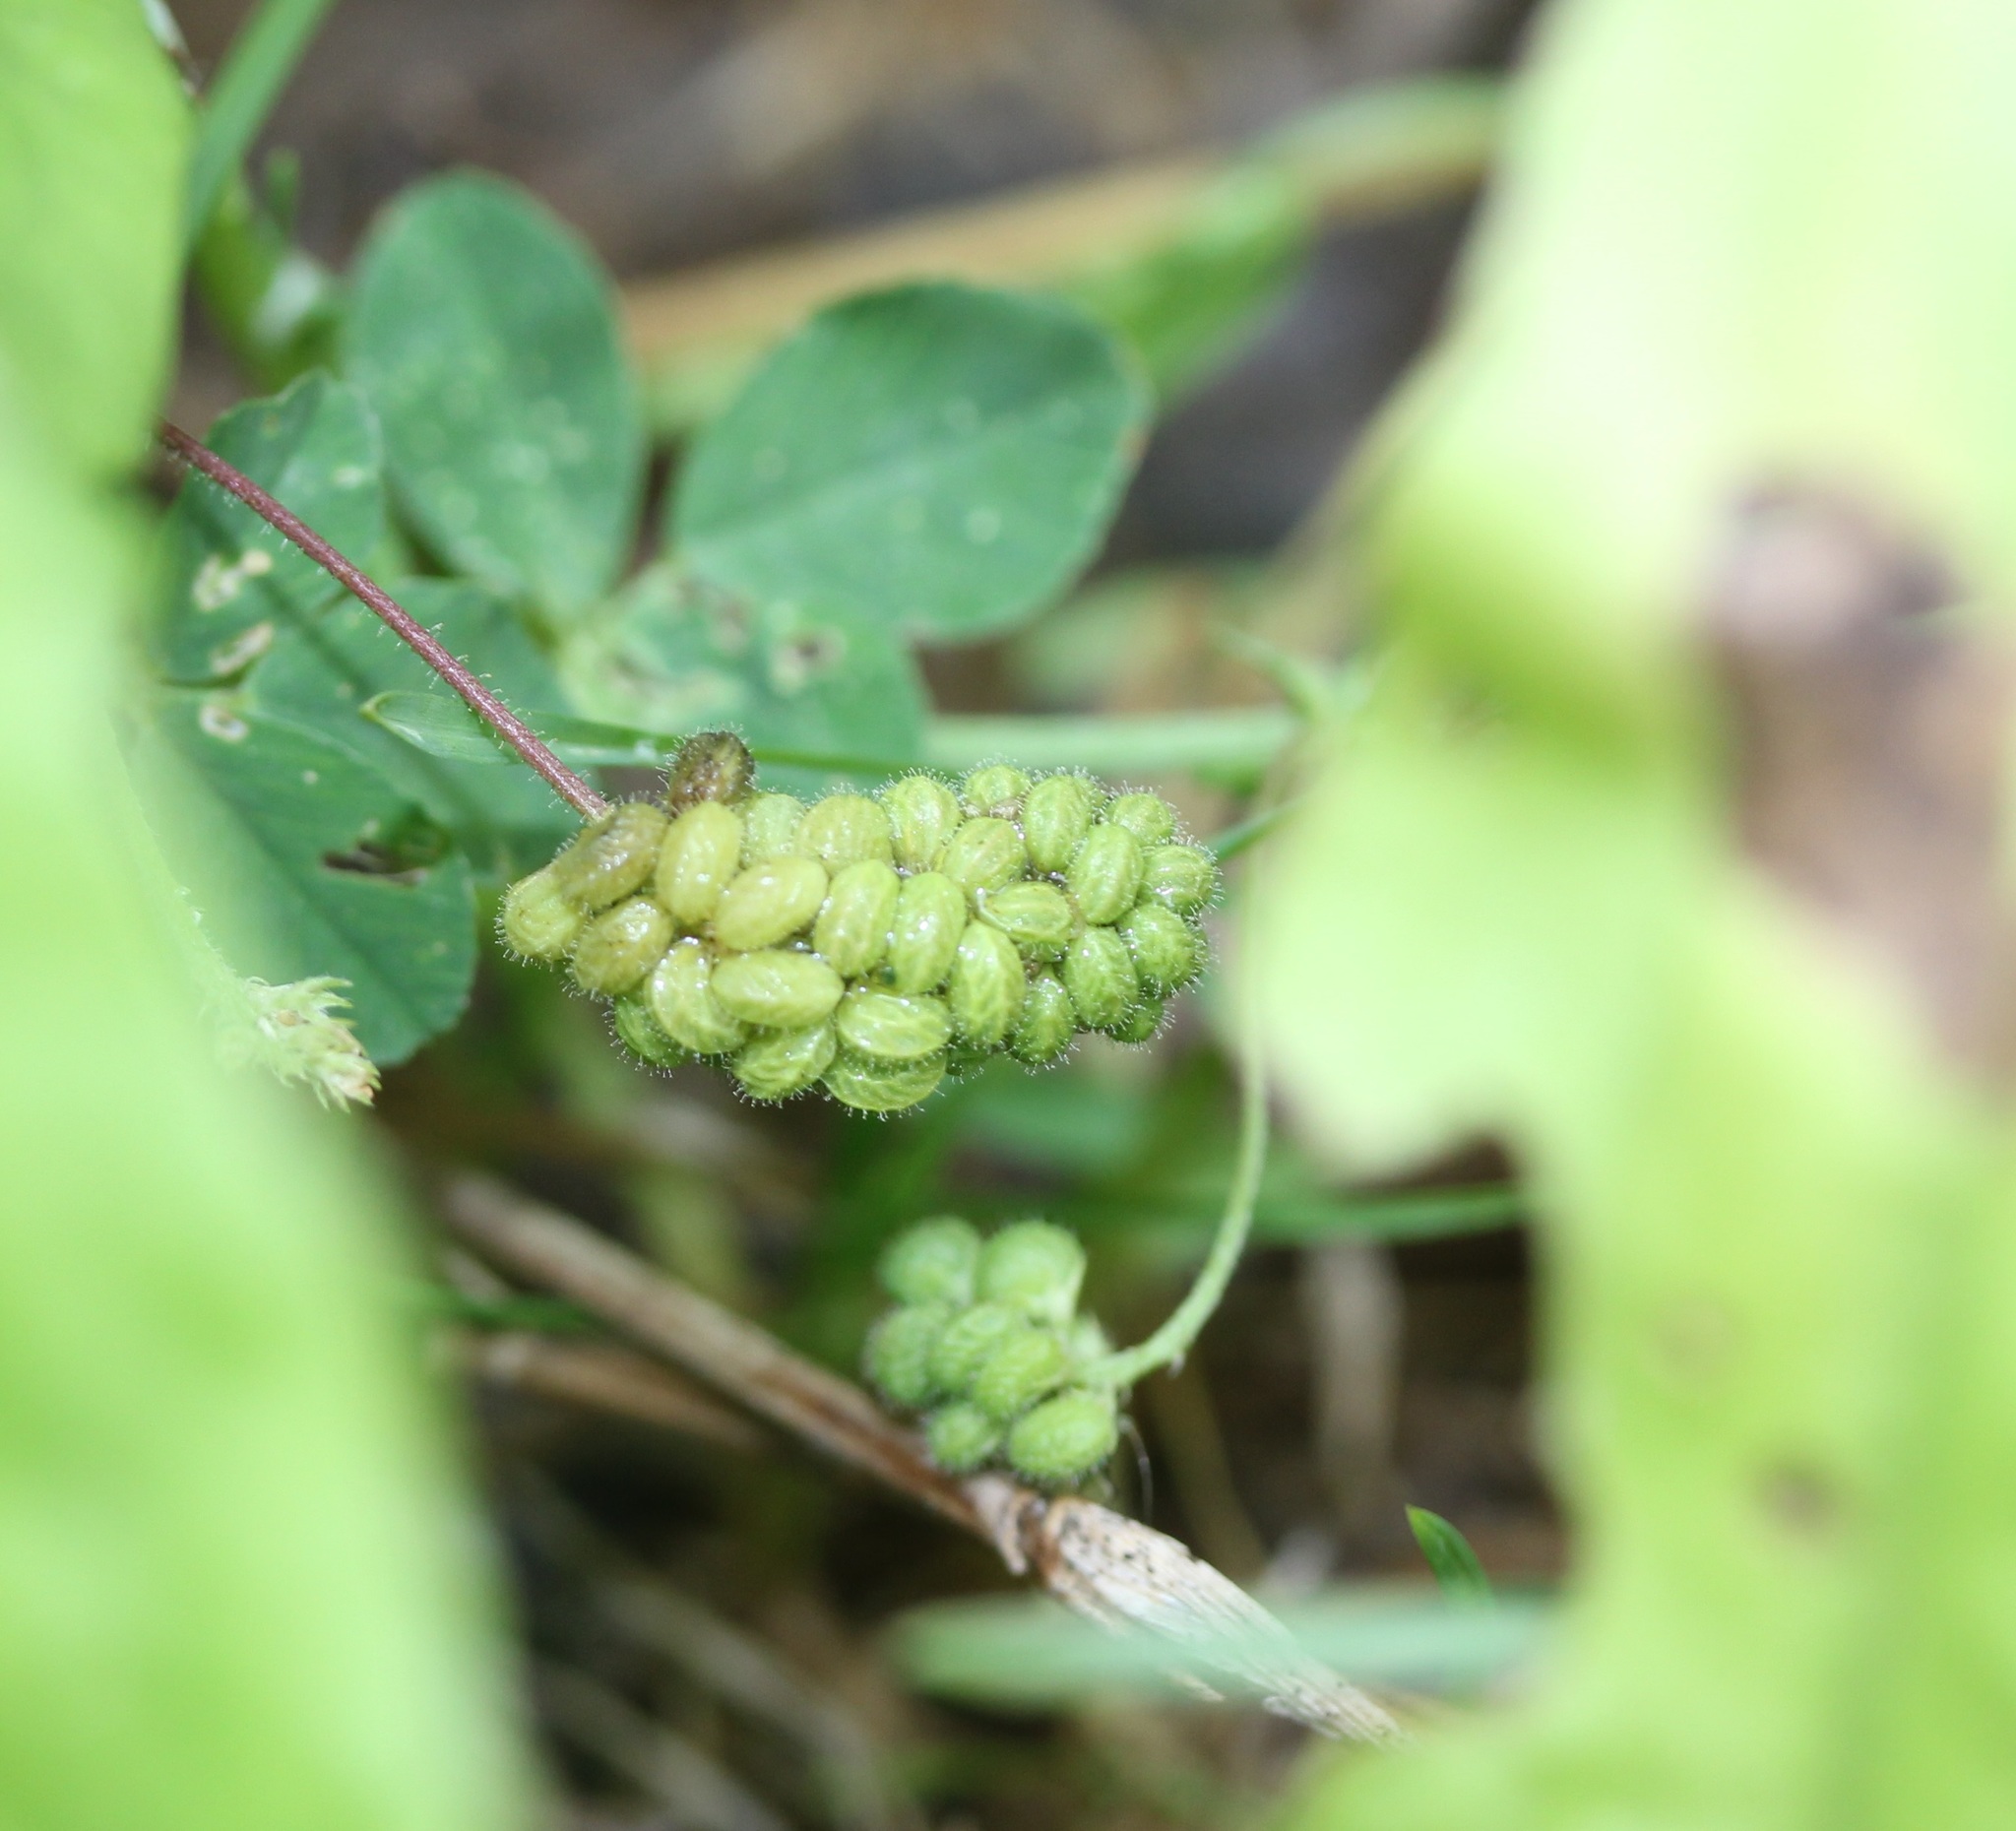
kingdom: Plantae
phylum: Tracheophyta
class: Magnoliopsida
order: Fabales
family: Fabaceae
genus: Medicago
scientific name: Medicago lupulina
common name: Black medick
